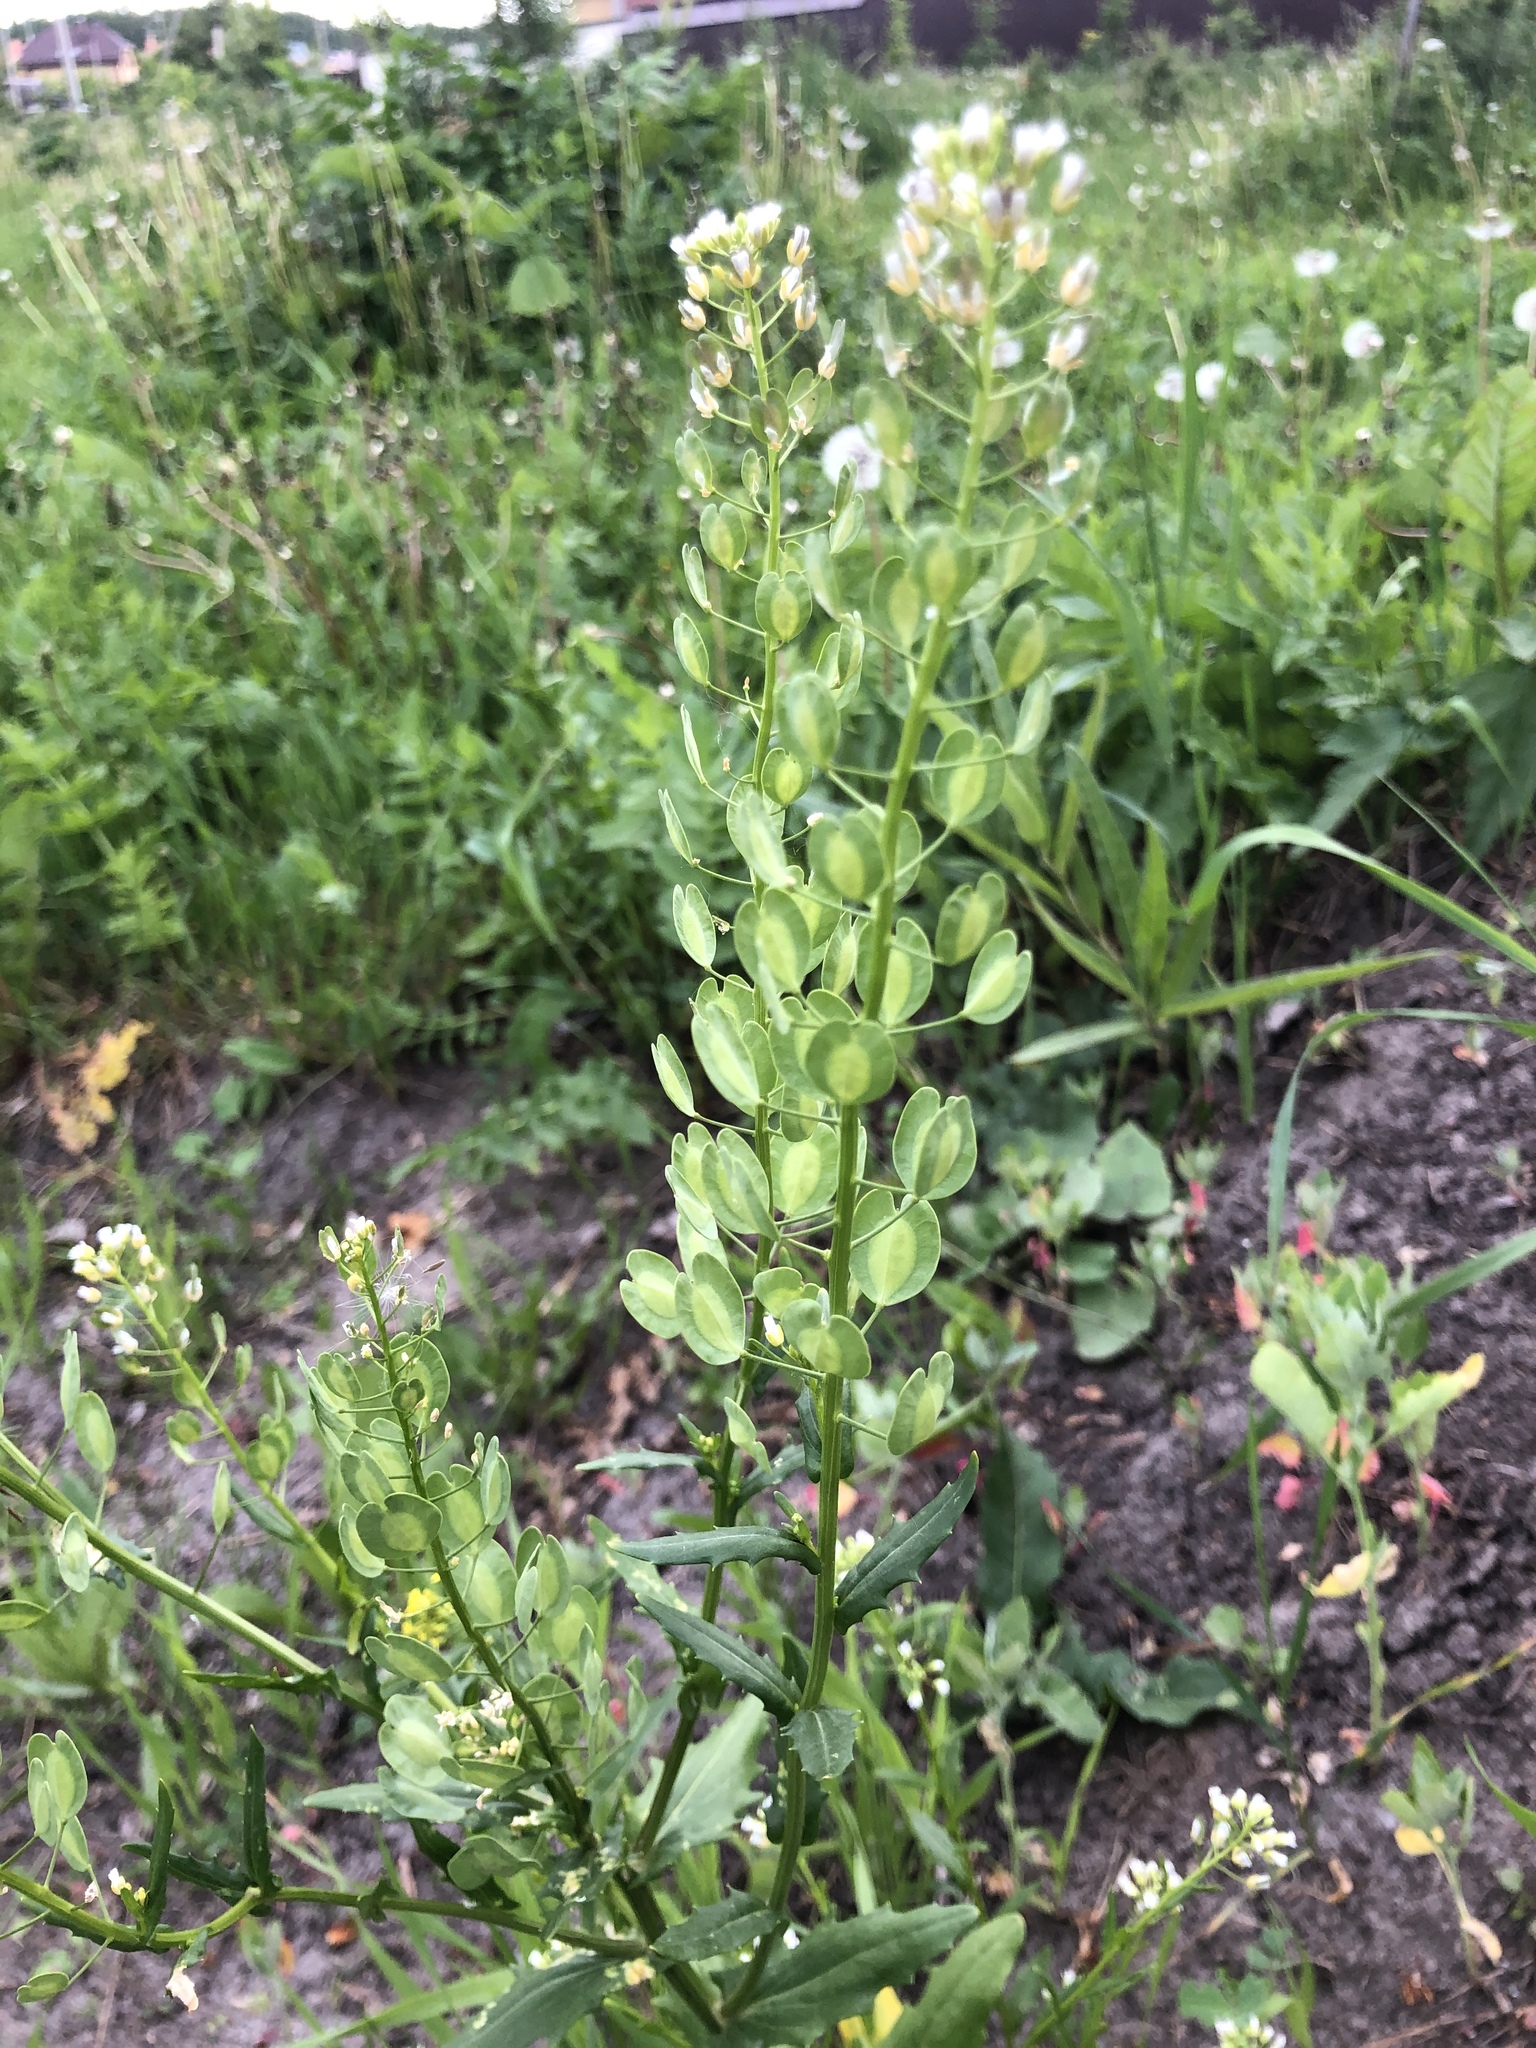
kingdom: Plantae
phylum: Tracheophyta
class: Magnoliopsida
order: Brassicales
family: Brassicaceae
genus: Thlaspi
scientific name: Thlaspi arvense
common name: Field pennycress
